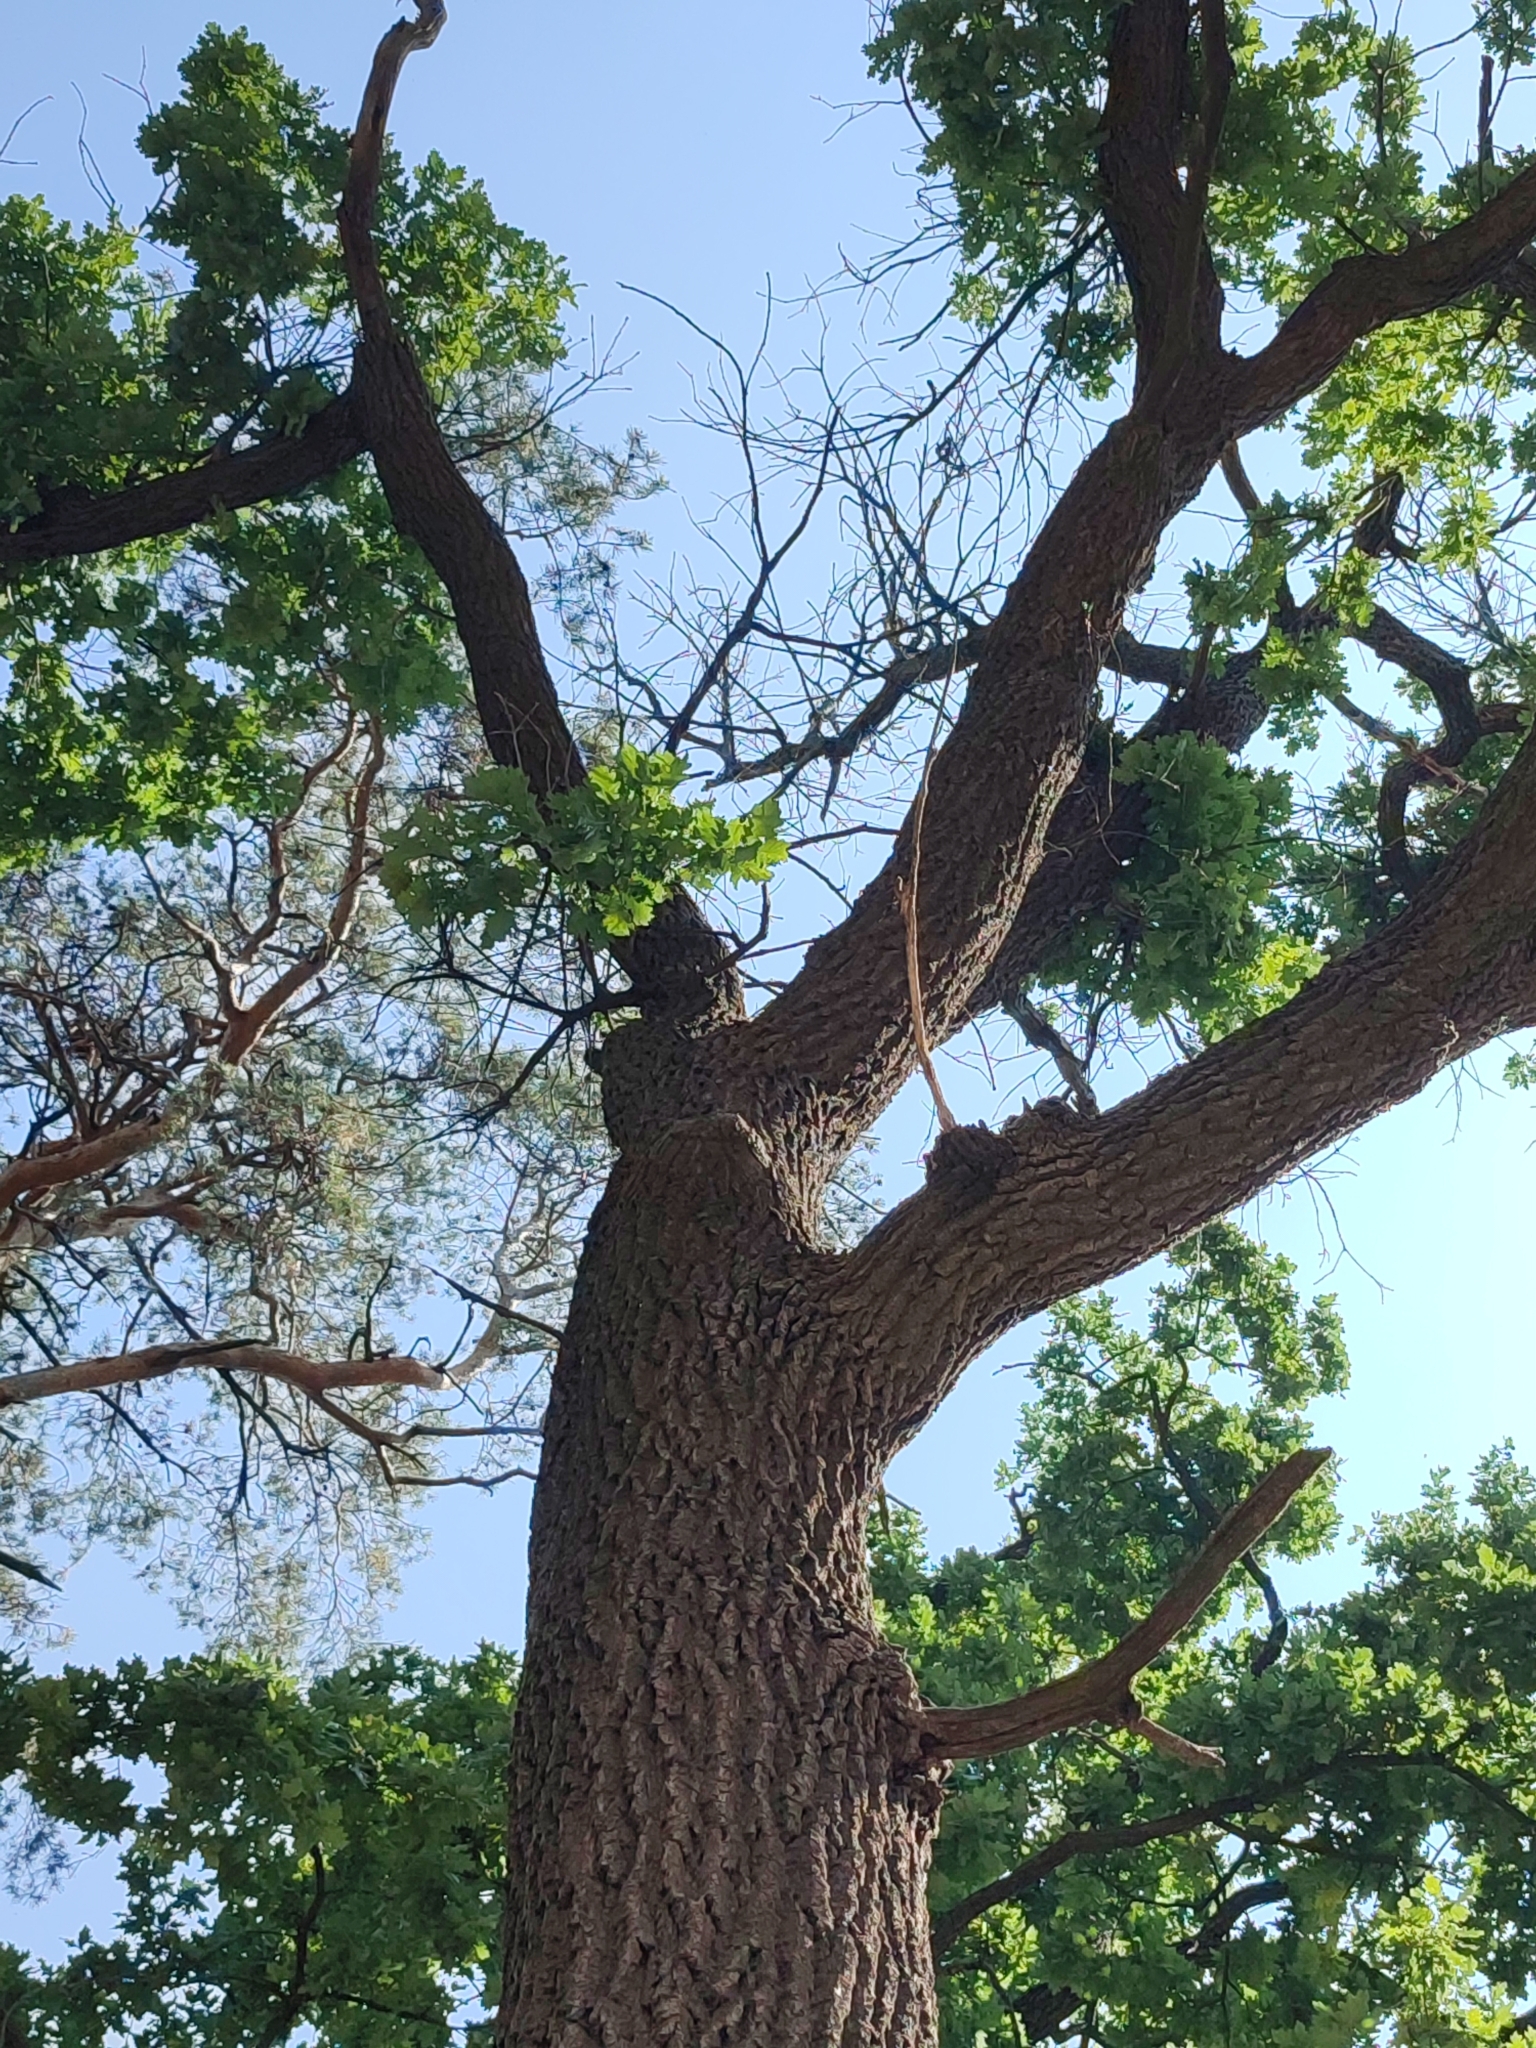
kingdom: Plantae
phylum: Tracheophyta
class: Magnoliopsida
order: Fagales
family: Fagaceae
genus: Quercus
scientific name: Quercus robur
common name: Pedunculate oak
